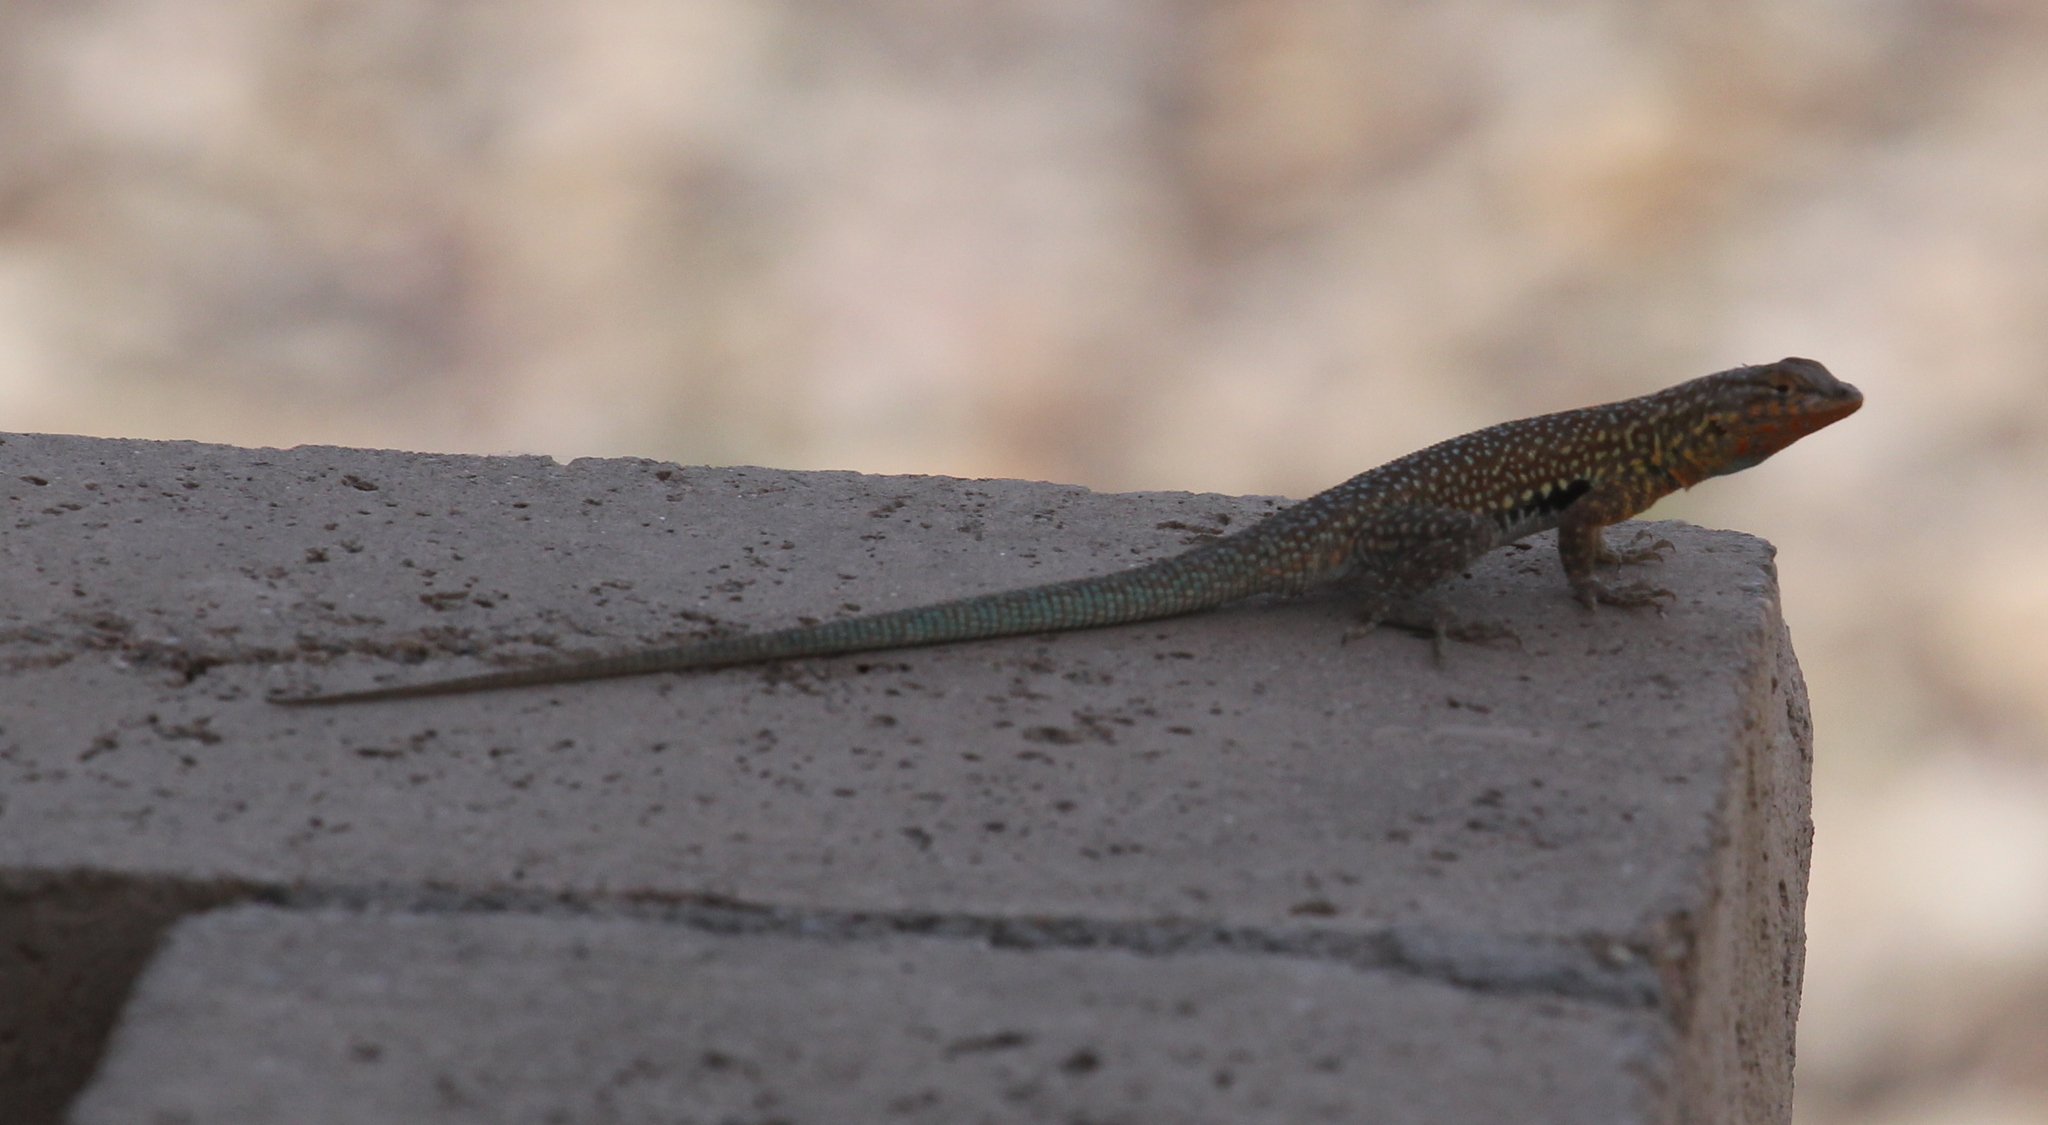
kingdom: Animalia
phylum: Chordata
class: Squamata
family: Phrynosomatidae
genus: Uta
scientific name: Uta stansburiana
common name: Side-blotched lizard
